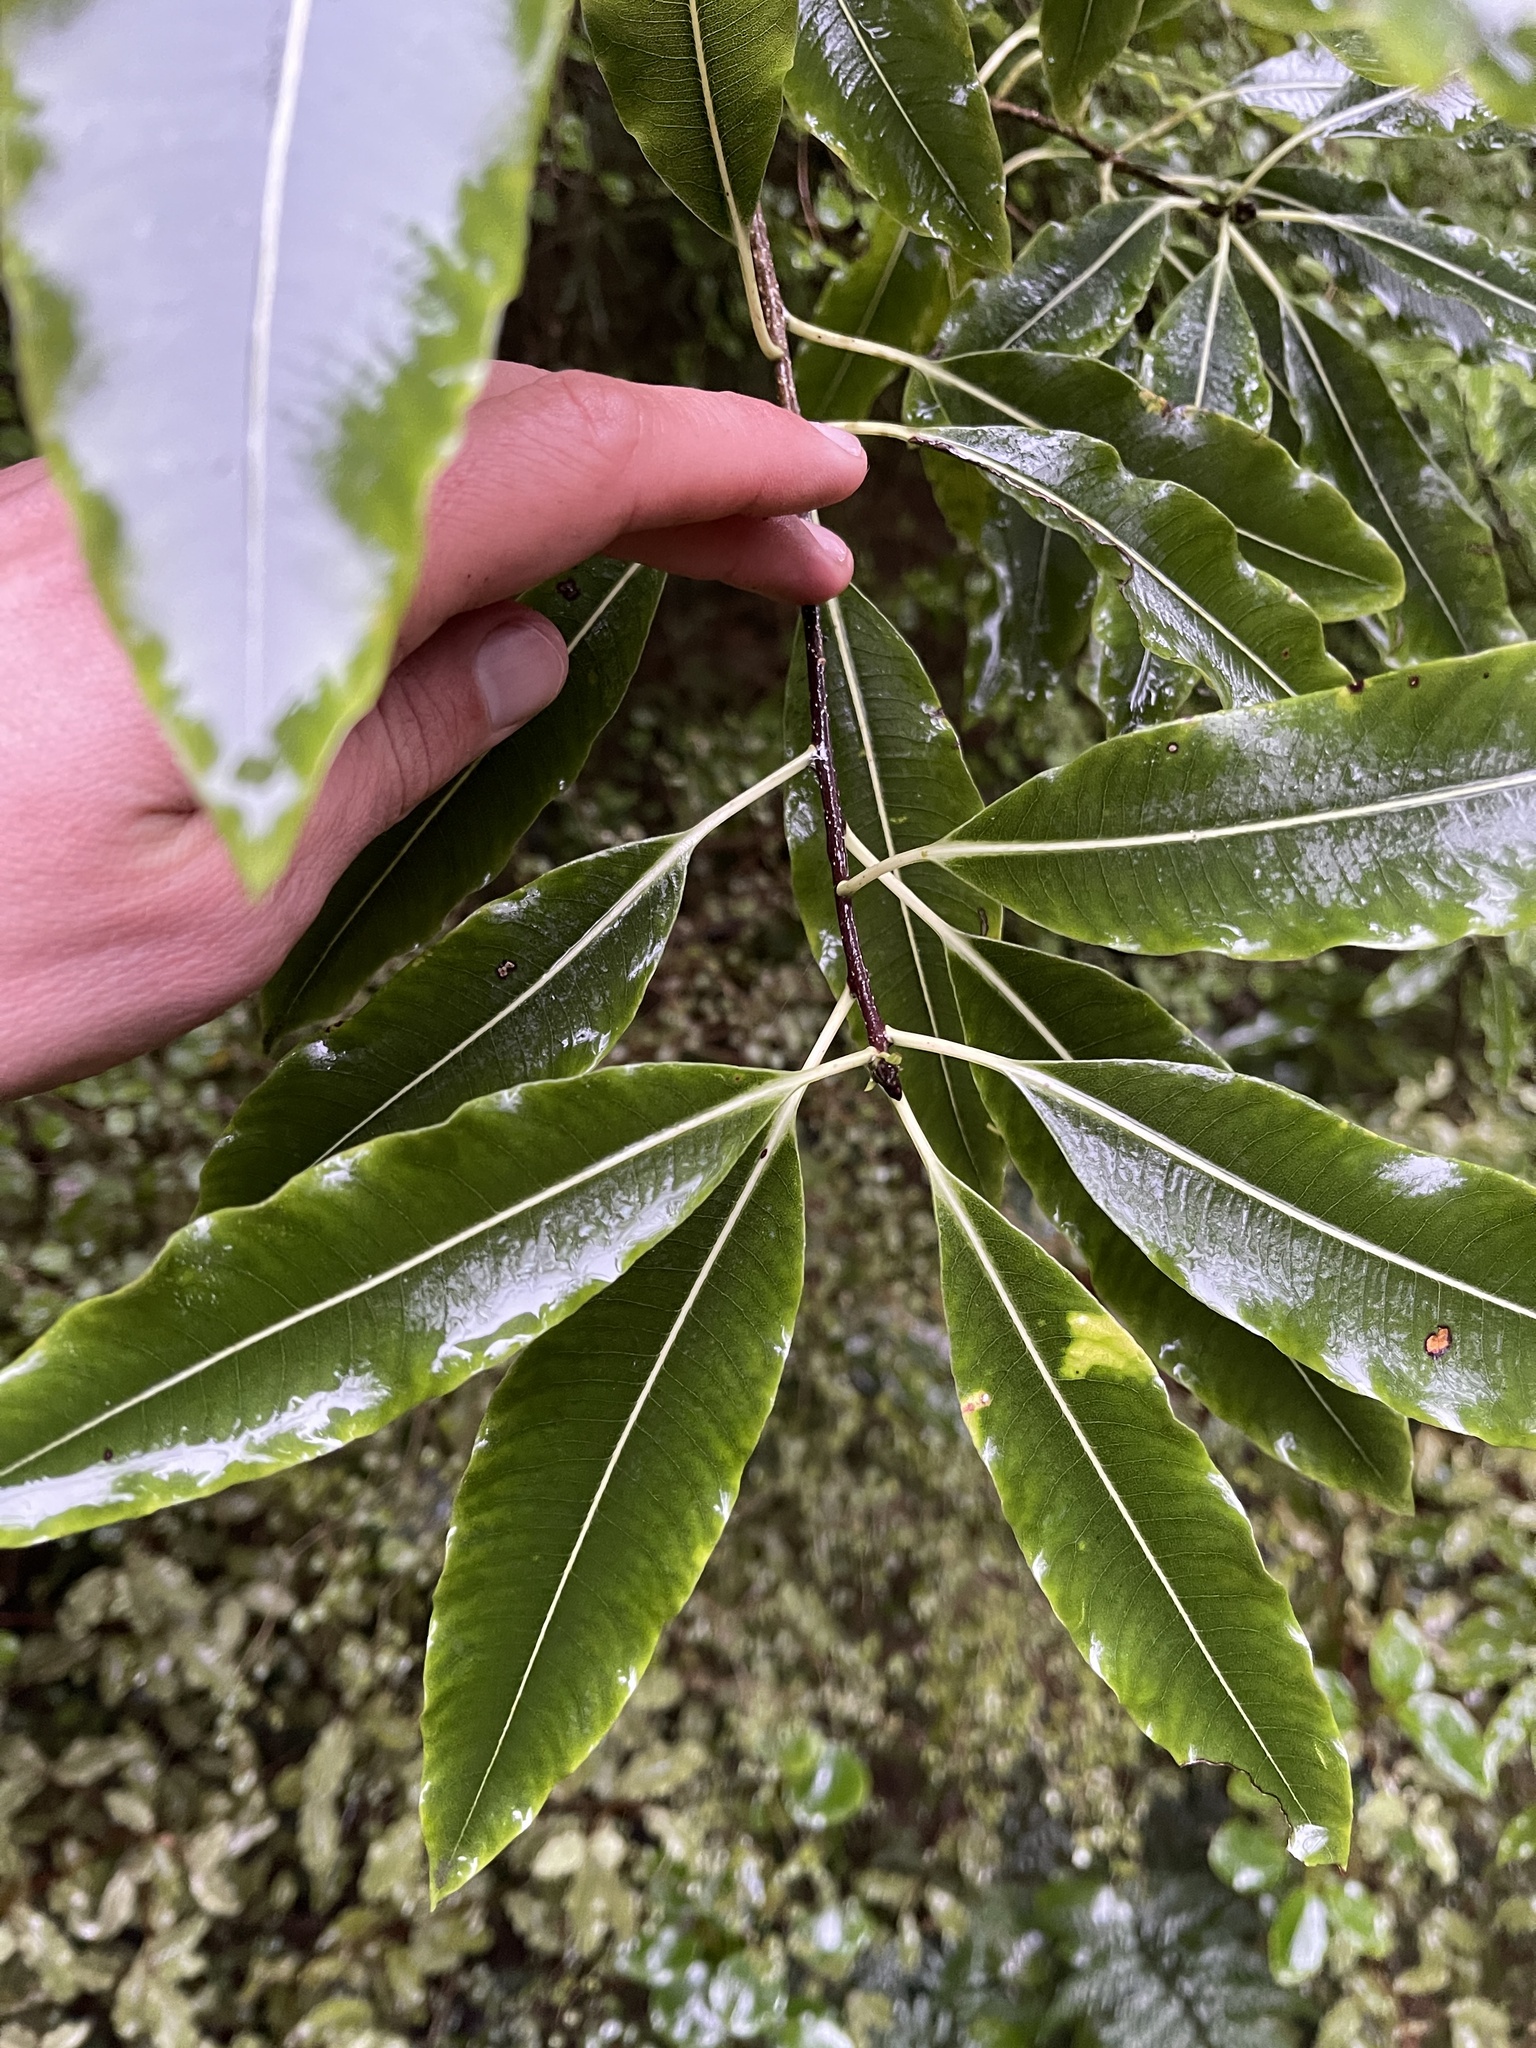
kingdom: Plantae
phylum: Tracheophyta
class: Magnoliopsida
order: Apiales
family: Pittosporaceae
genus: Pittosporum
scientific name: Pittosporum eugenioides
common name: Lemonwood
